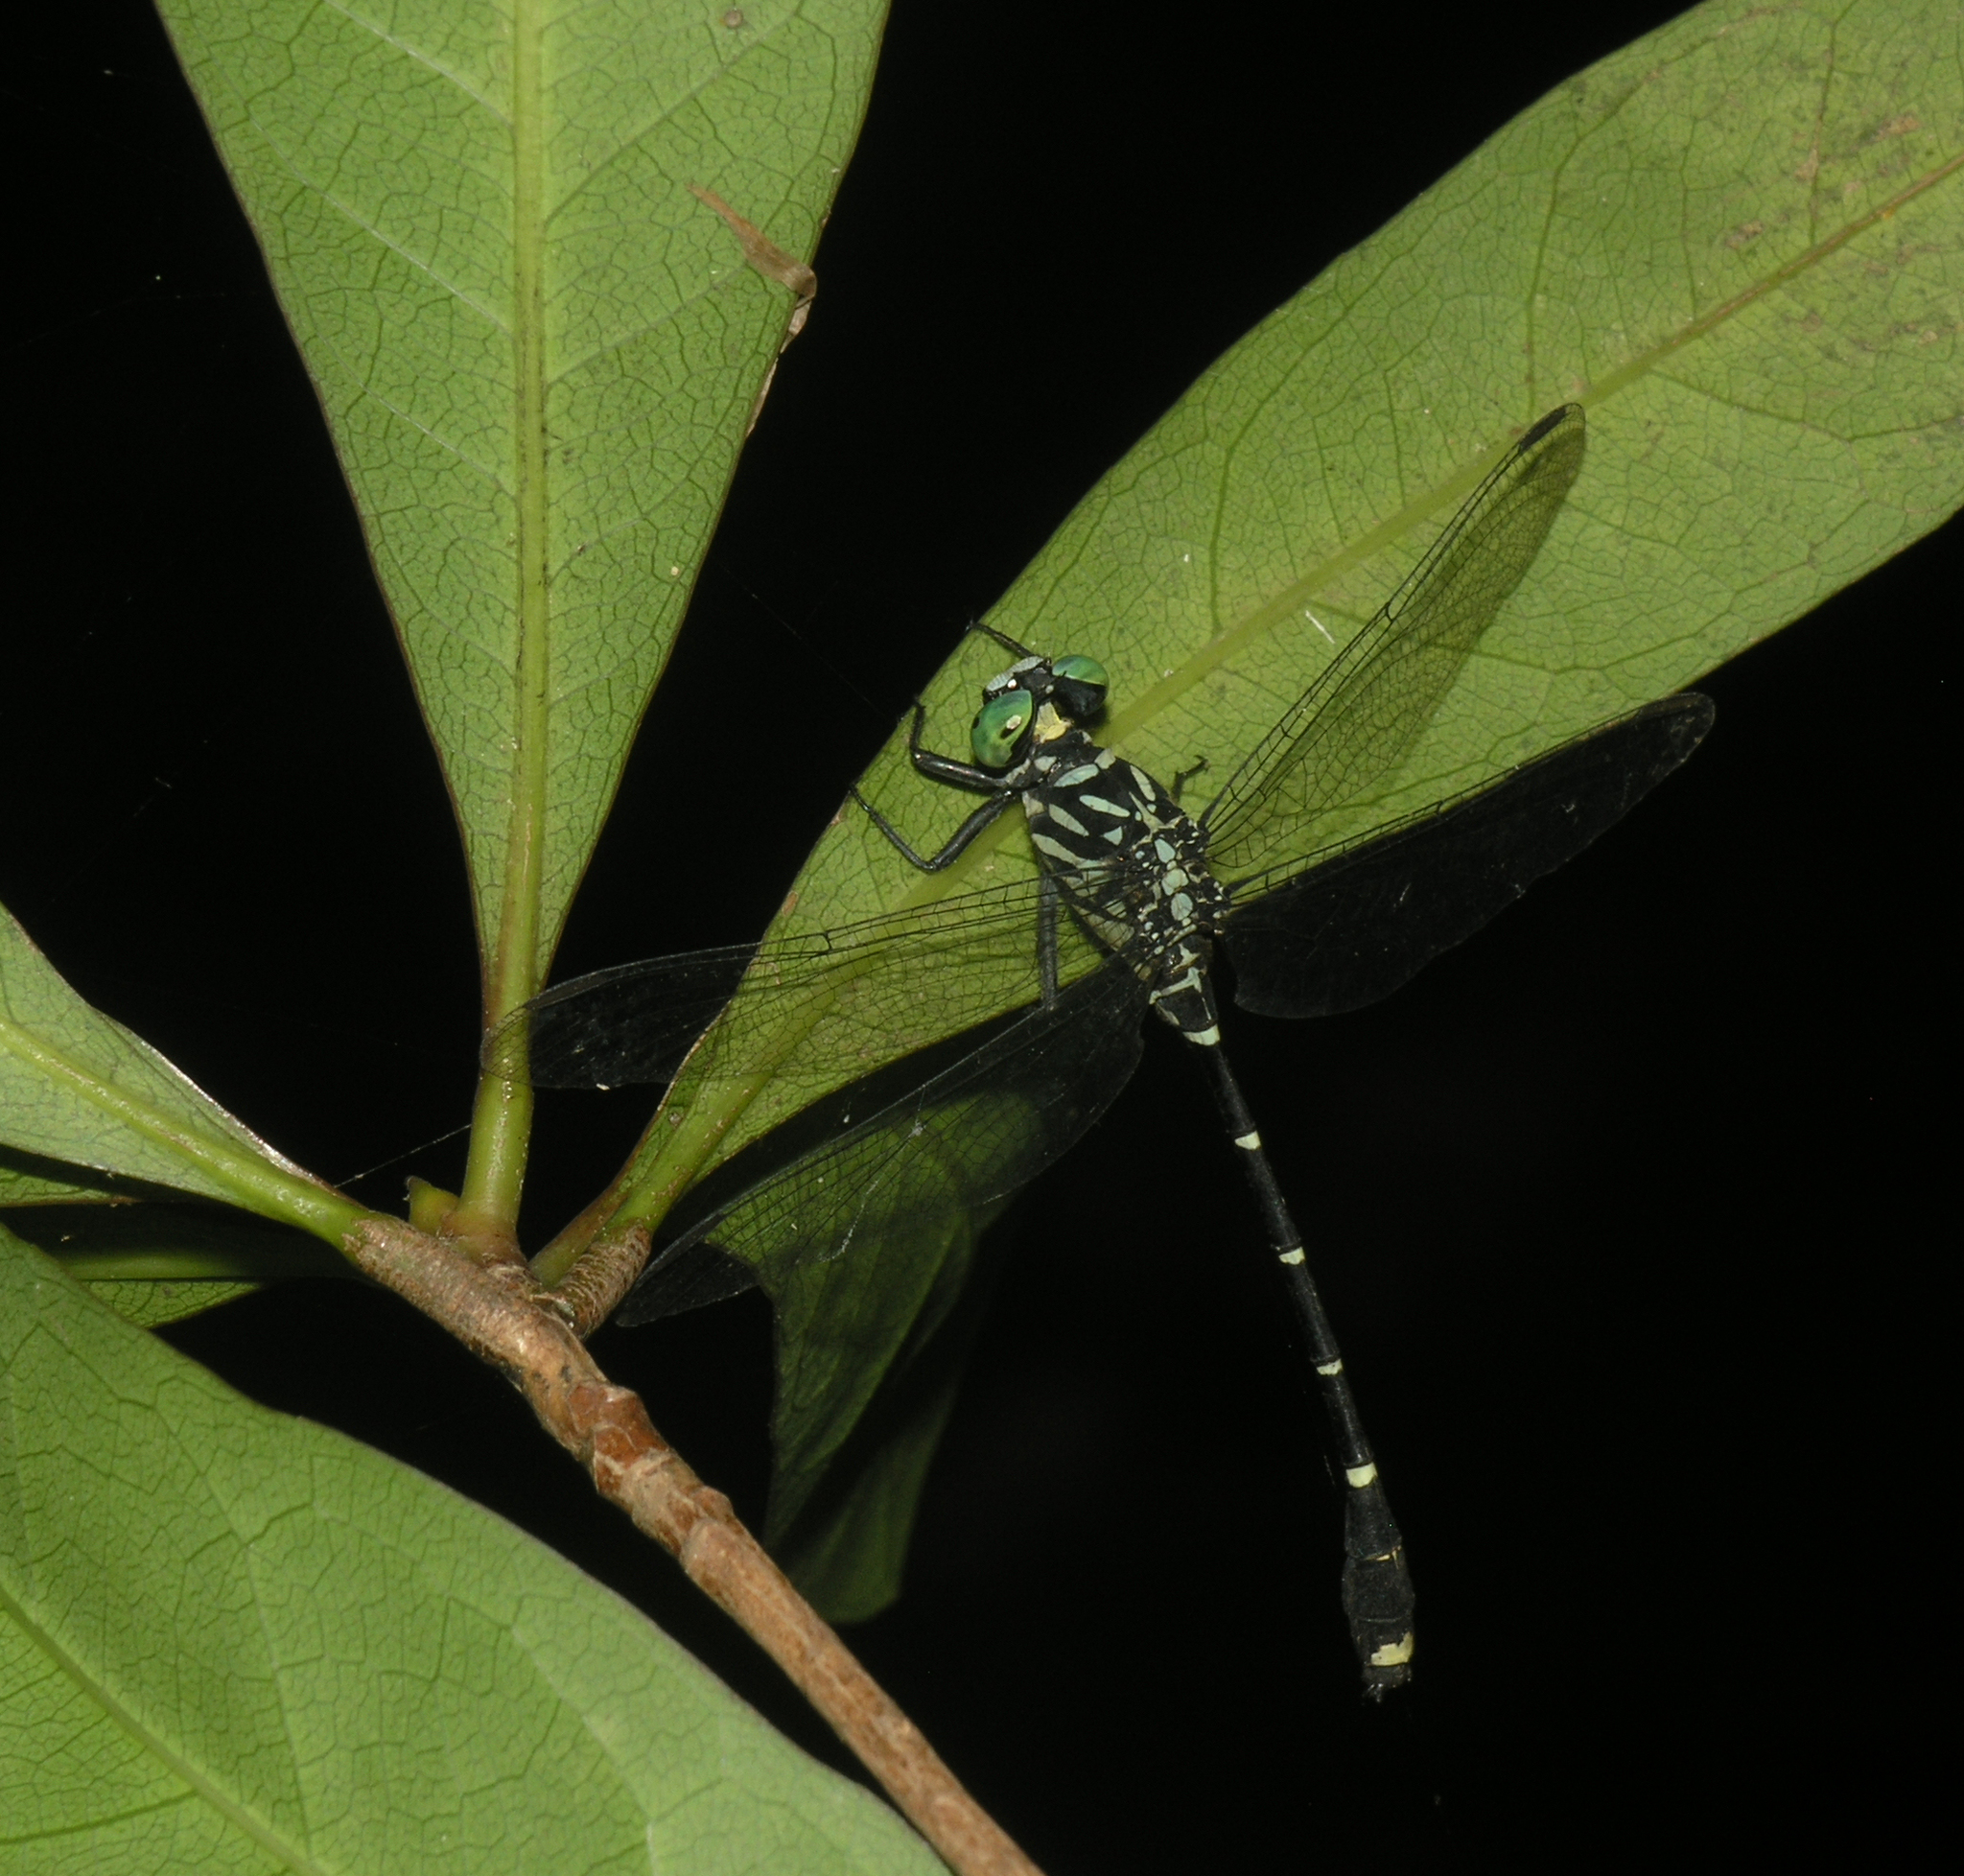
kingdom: Animalia
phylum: Arthropoda
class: Insecta
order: Odonata
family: Gomphidae
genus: Burmagomphus
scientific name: Burmagomphus asahinai
